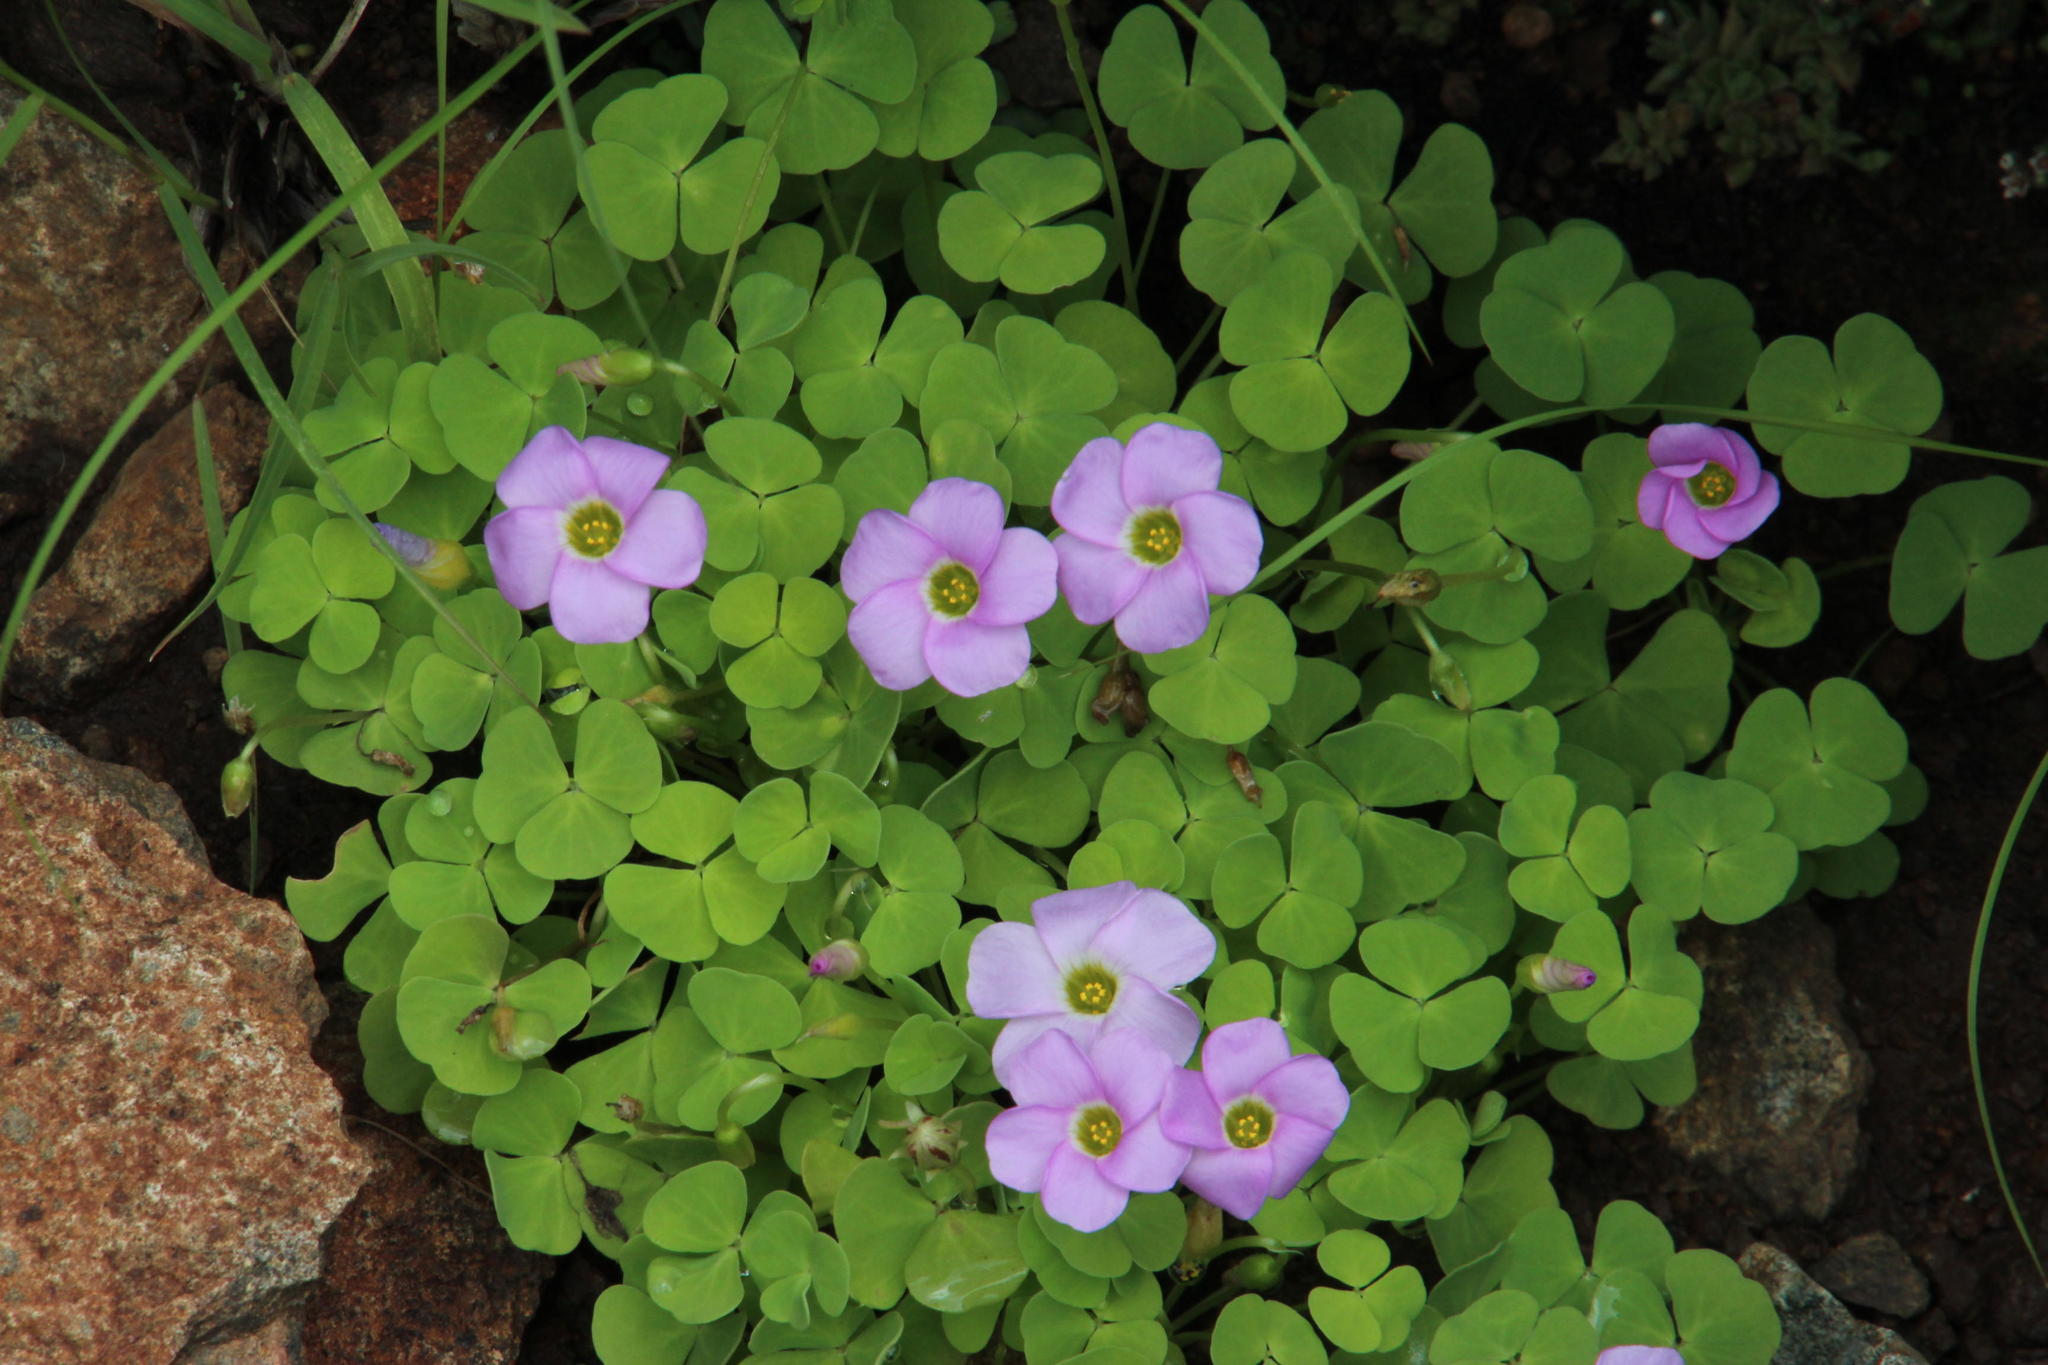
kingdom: Plantae
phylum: Tracheophyta
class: Magnoliopsida
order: Oxalidales
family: Oxalidaceae
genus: Oxalis
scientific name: Oxalis obliquifolia
